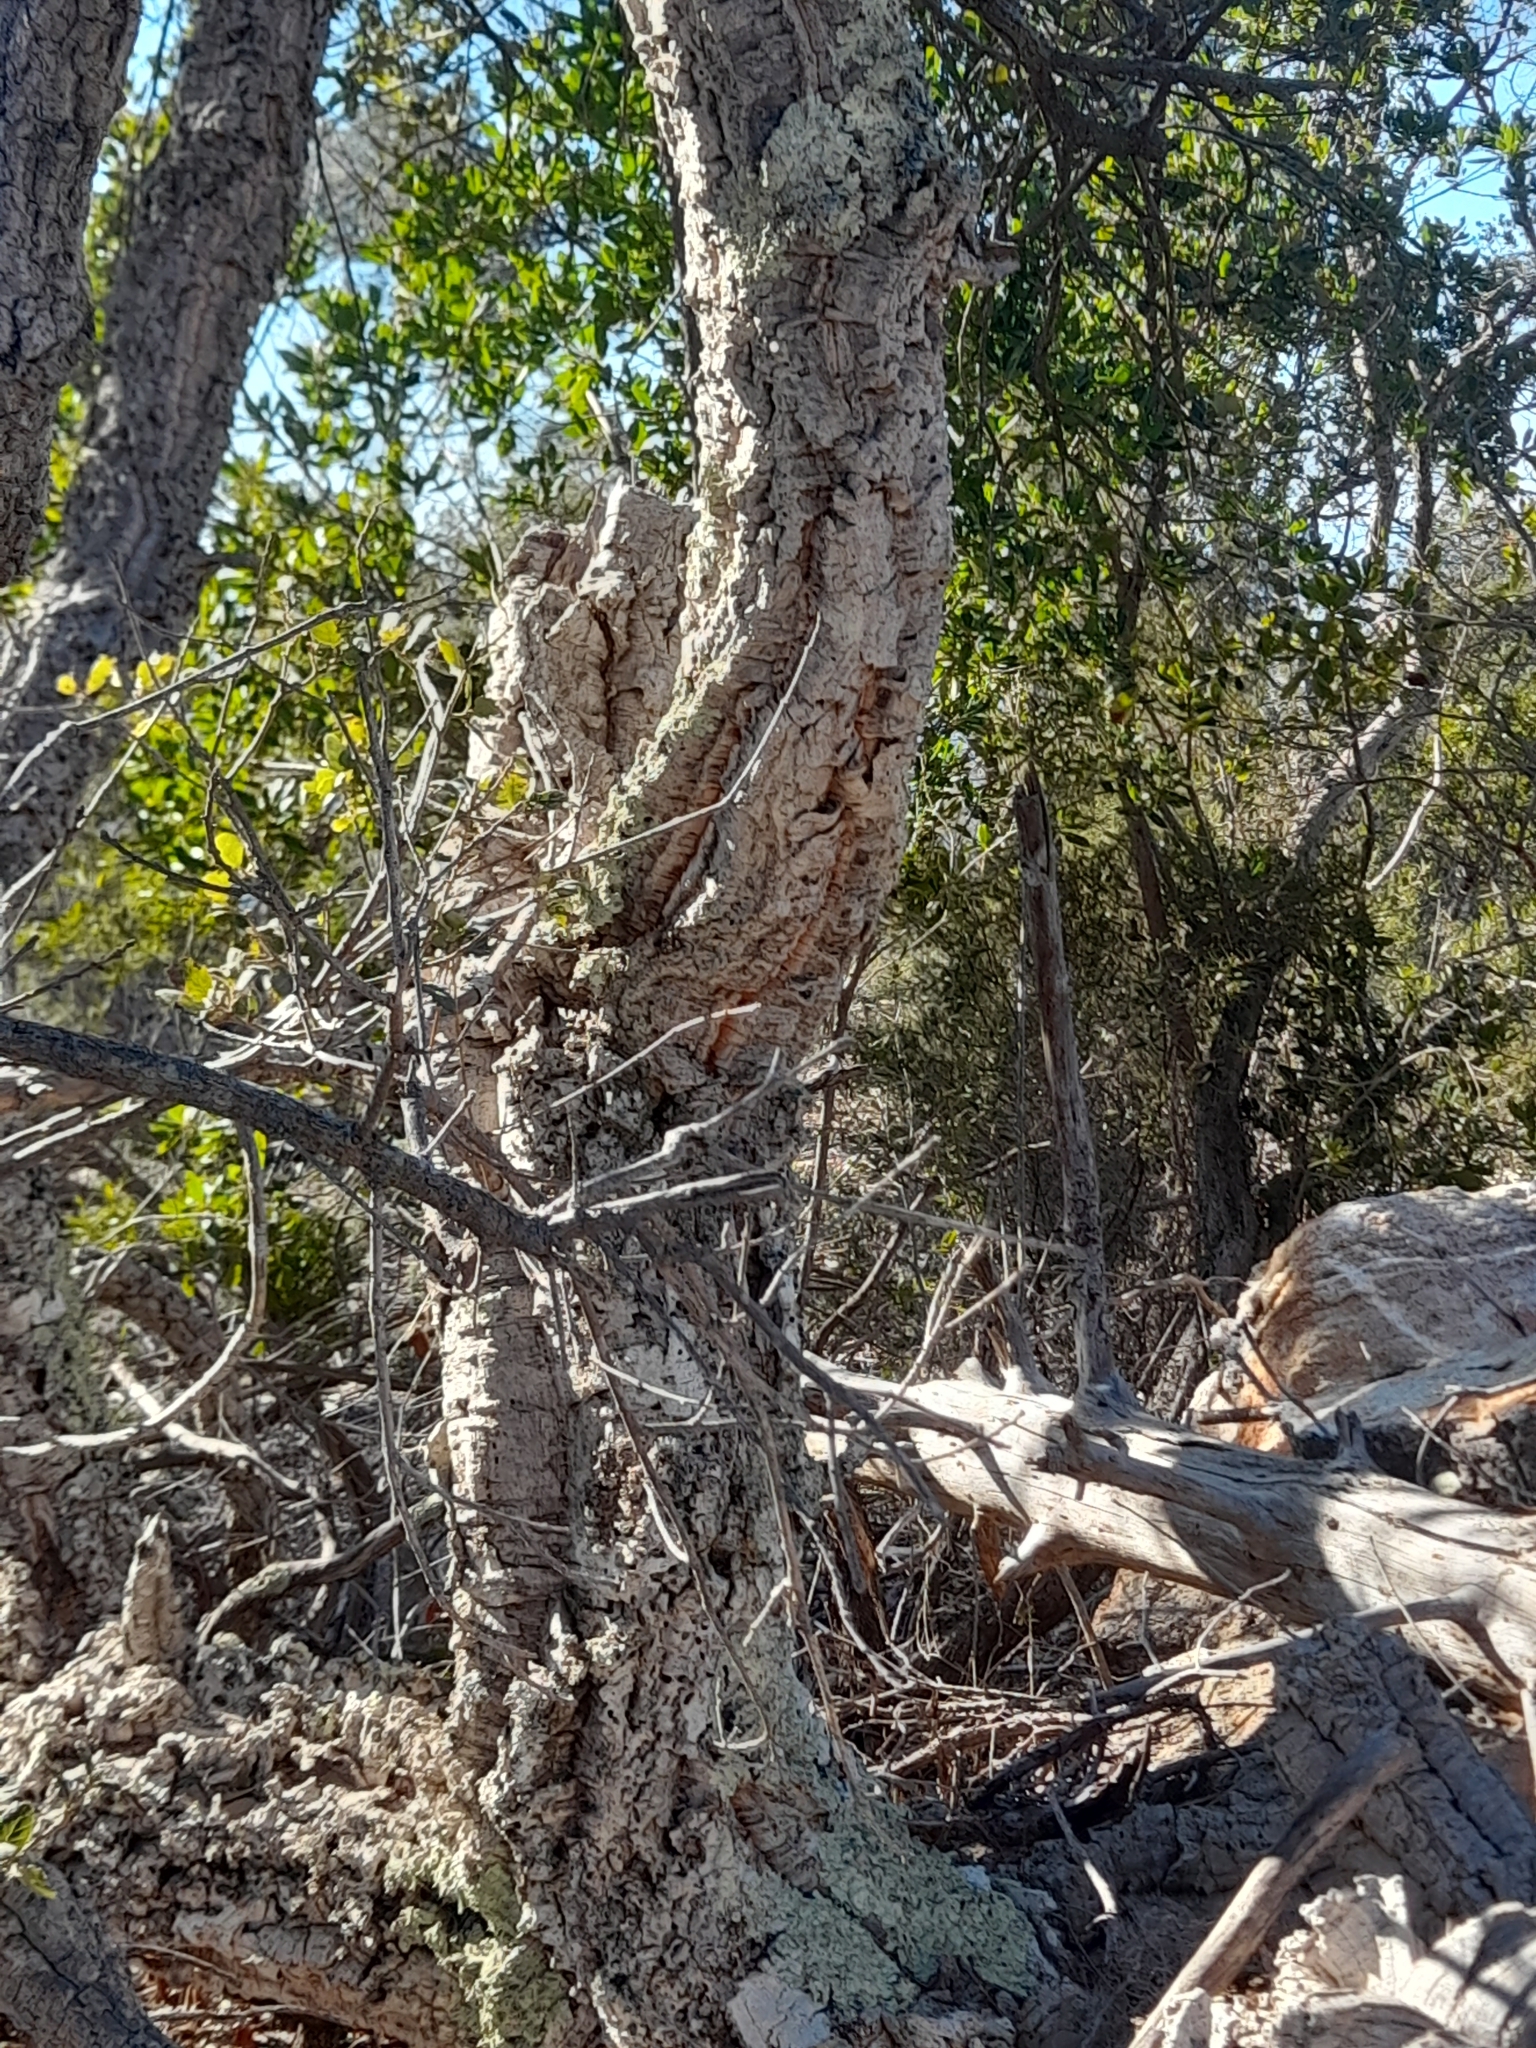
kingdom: Plantae
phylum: Tracheophyta
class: Magnoliopsida
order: Fagales
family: Fagaceae
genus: Quercus
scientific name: Quercus suber
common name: Cork oak
